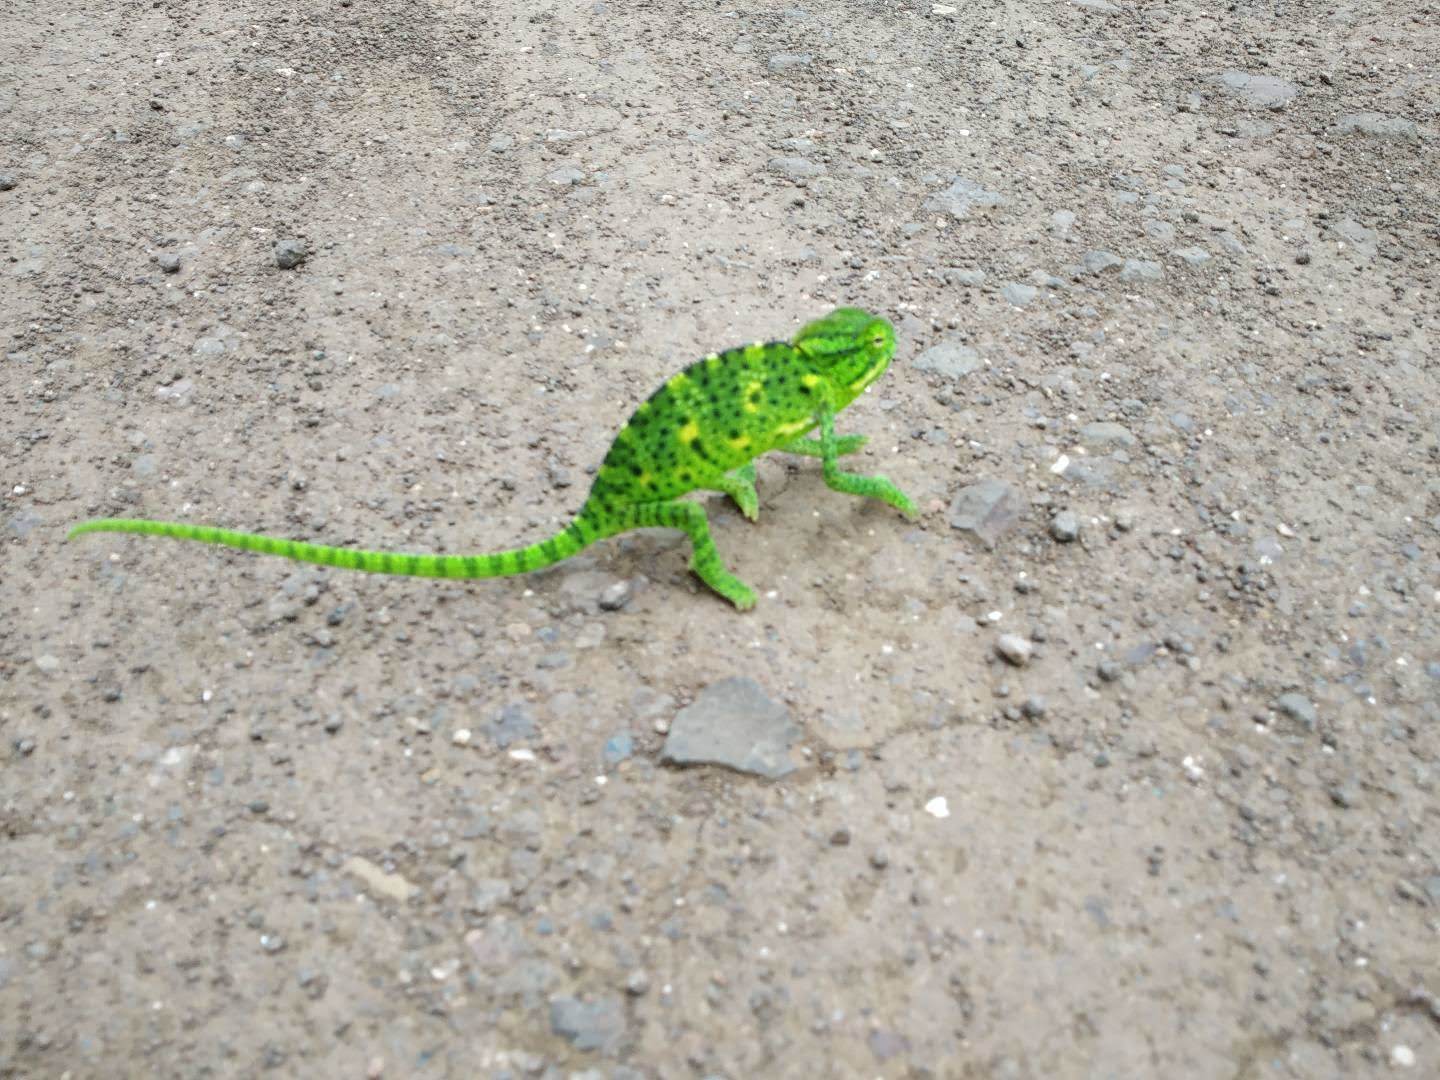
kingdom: Animalia
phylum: Chordata
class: Squamata
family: Chamaeleonidae
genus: Chamaeleo
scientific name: Chamaeleo zeylanicus
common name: Indian chameleon
